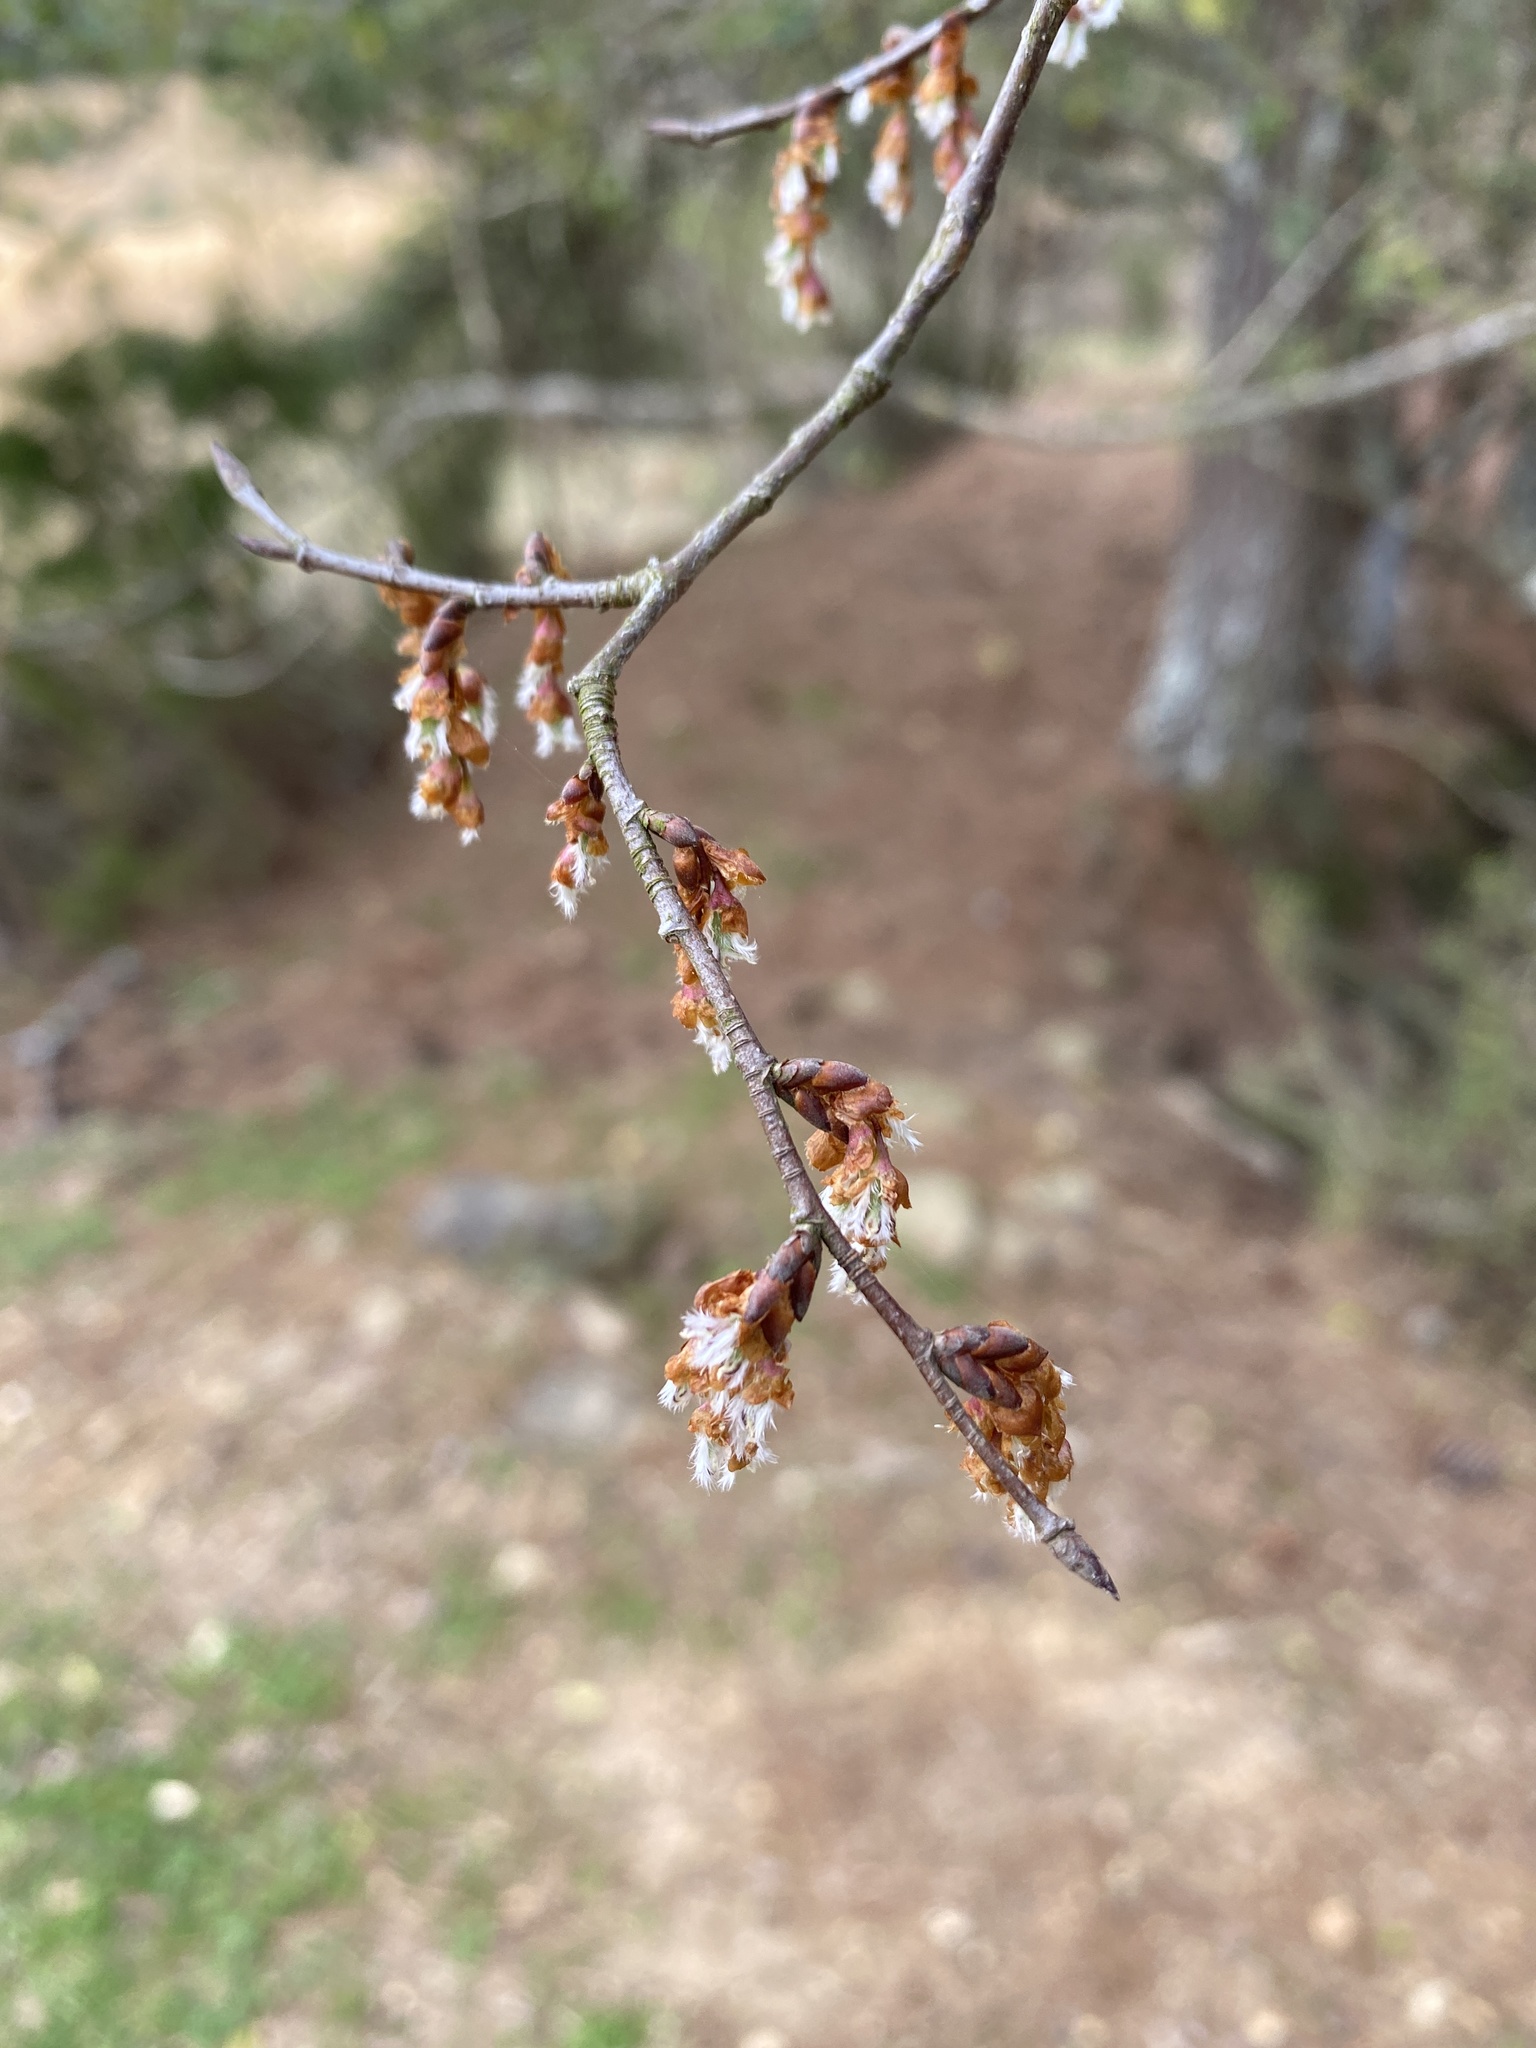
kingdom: Plantae
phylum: Tracheophyta
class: Magnoliopsida
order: Rosales
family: Ulmaceae
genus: Ulmus
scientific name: Ulmus alata
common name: Winged elm
